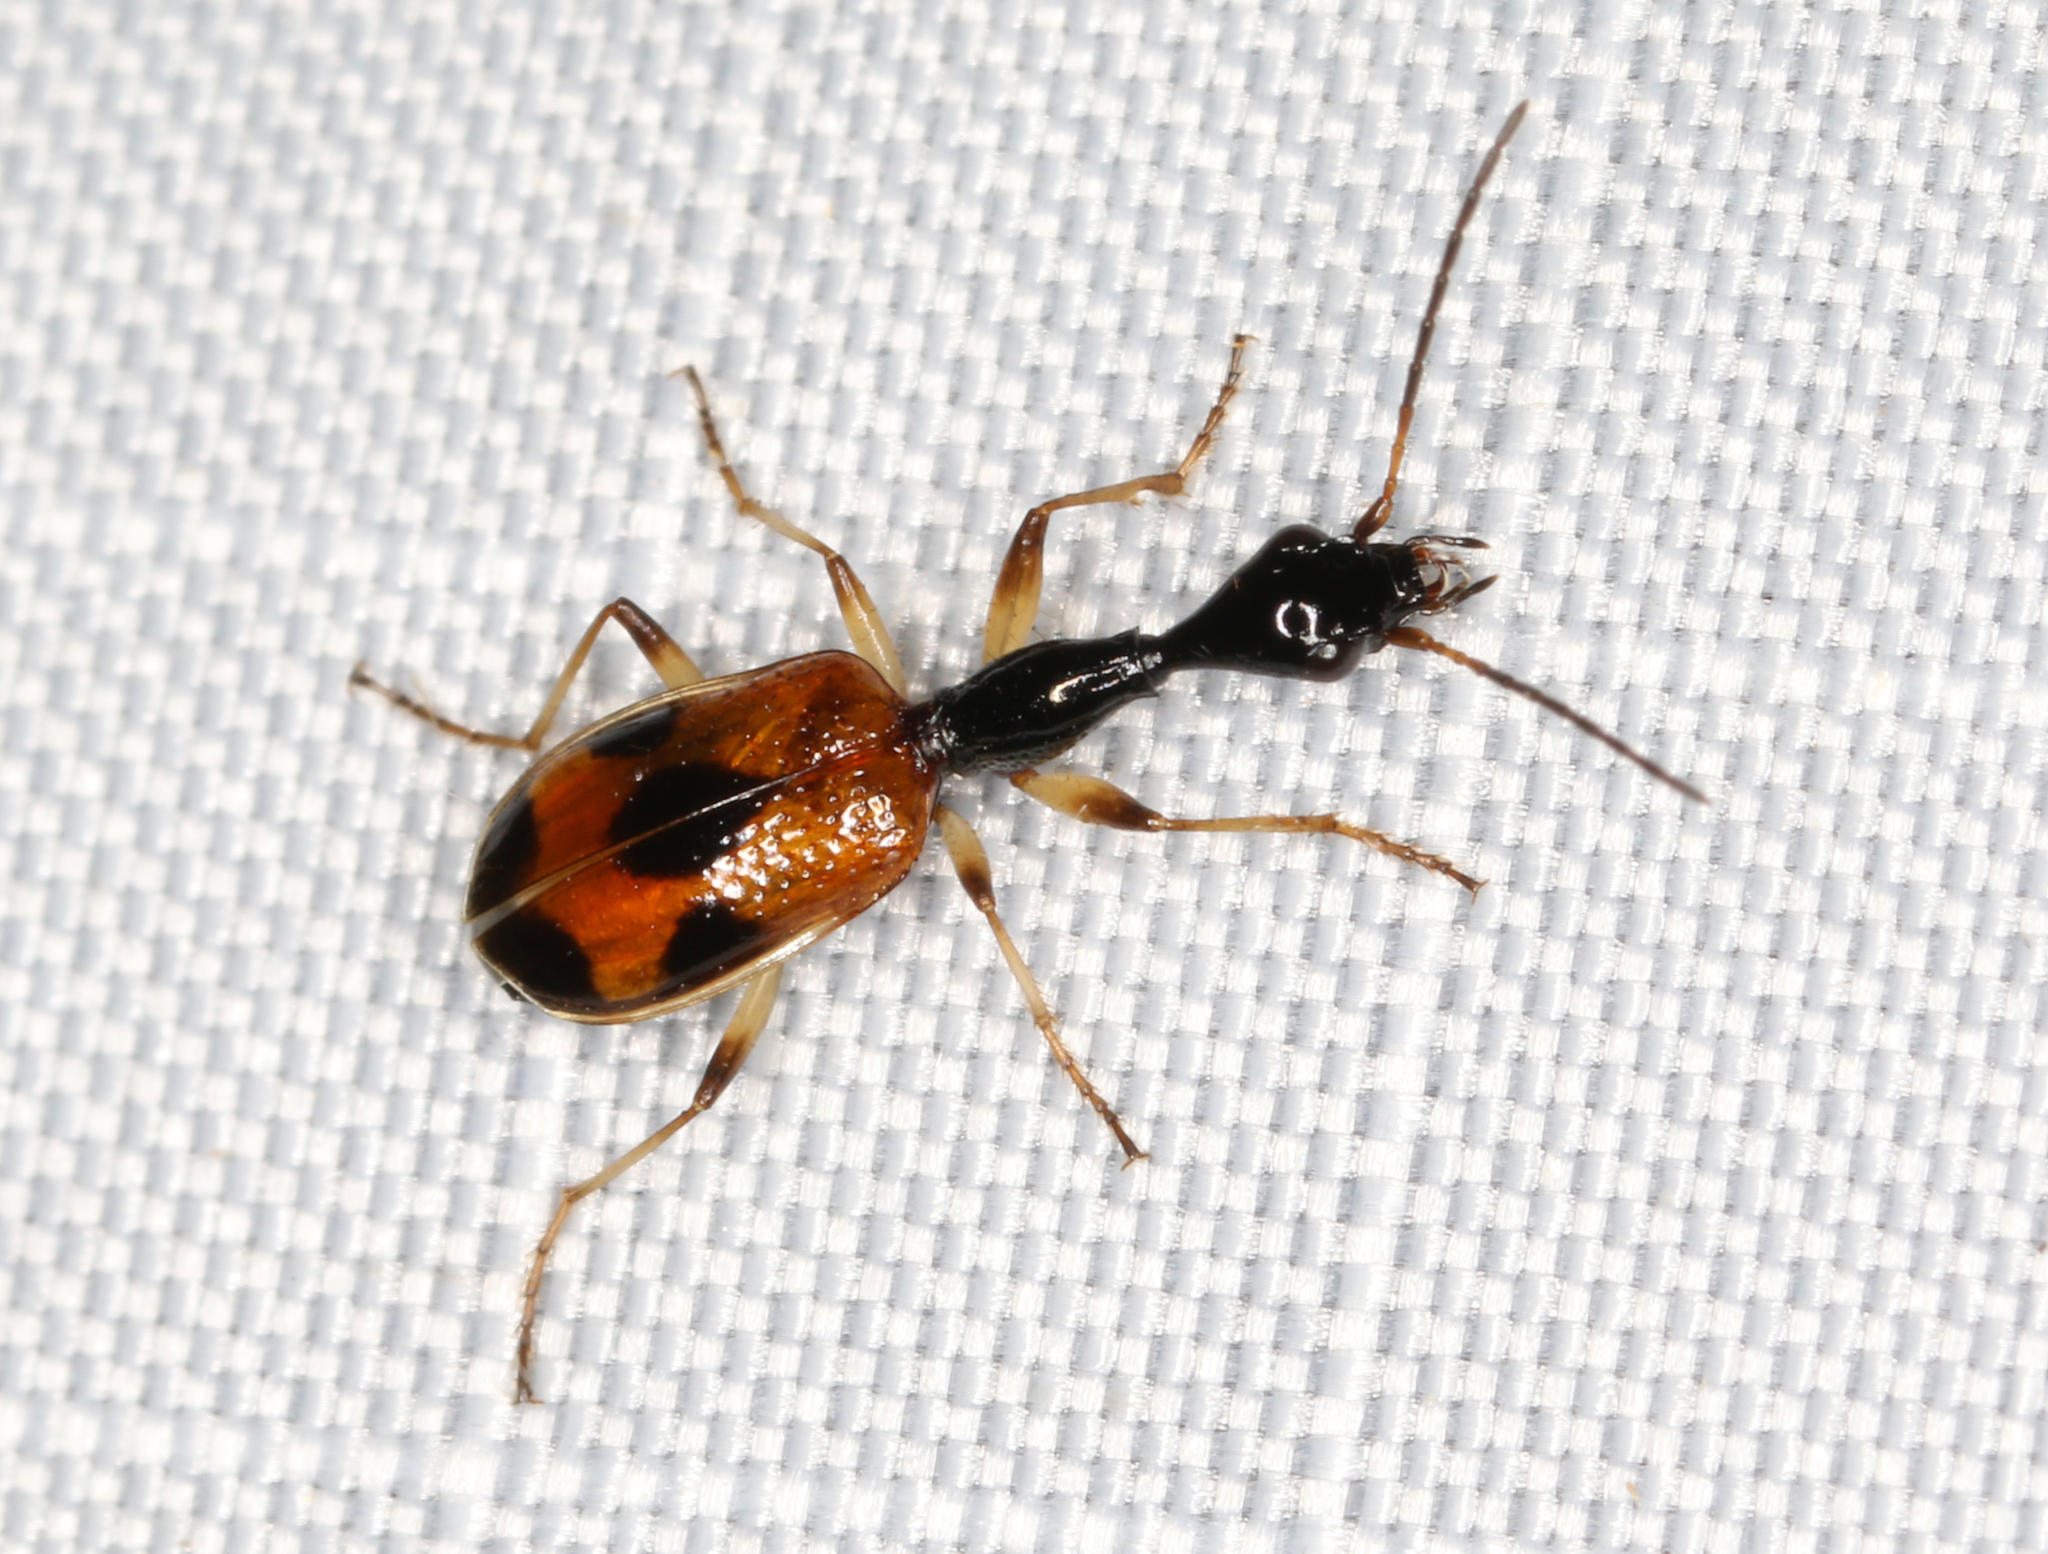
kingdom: Animalia
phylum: Arthropoda
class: Insecta
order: Coleoptera
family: Carabidae
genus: Colliuris
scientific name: Colliuris pensylvanica
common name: Long-necked ground beetle
